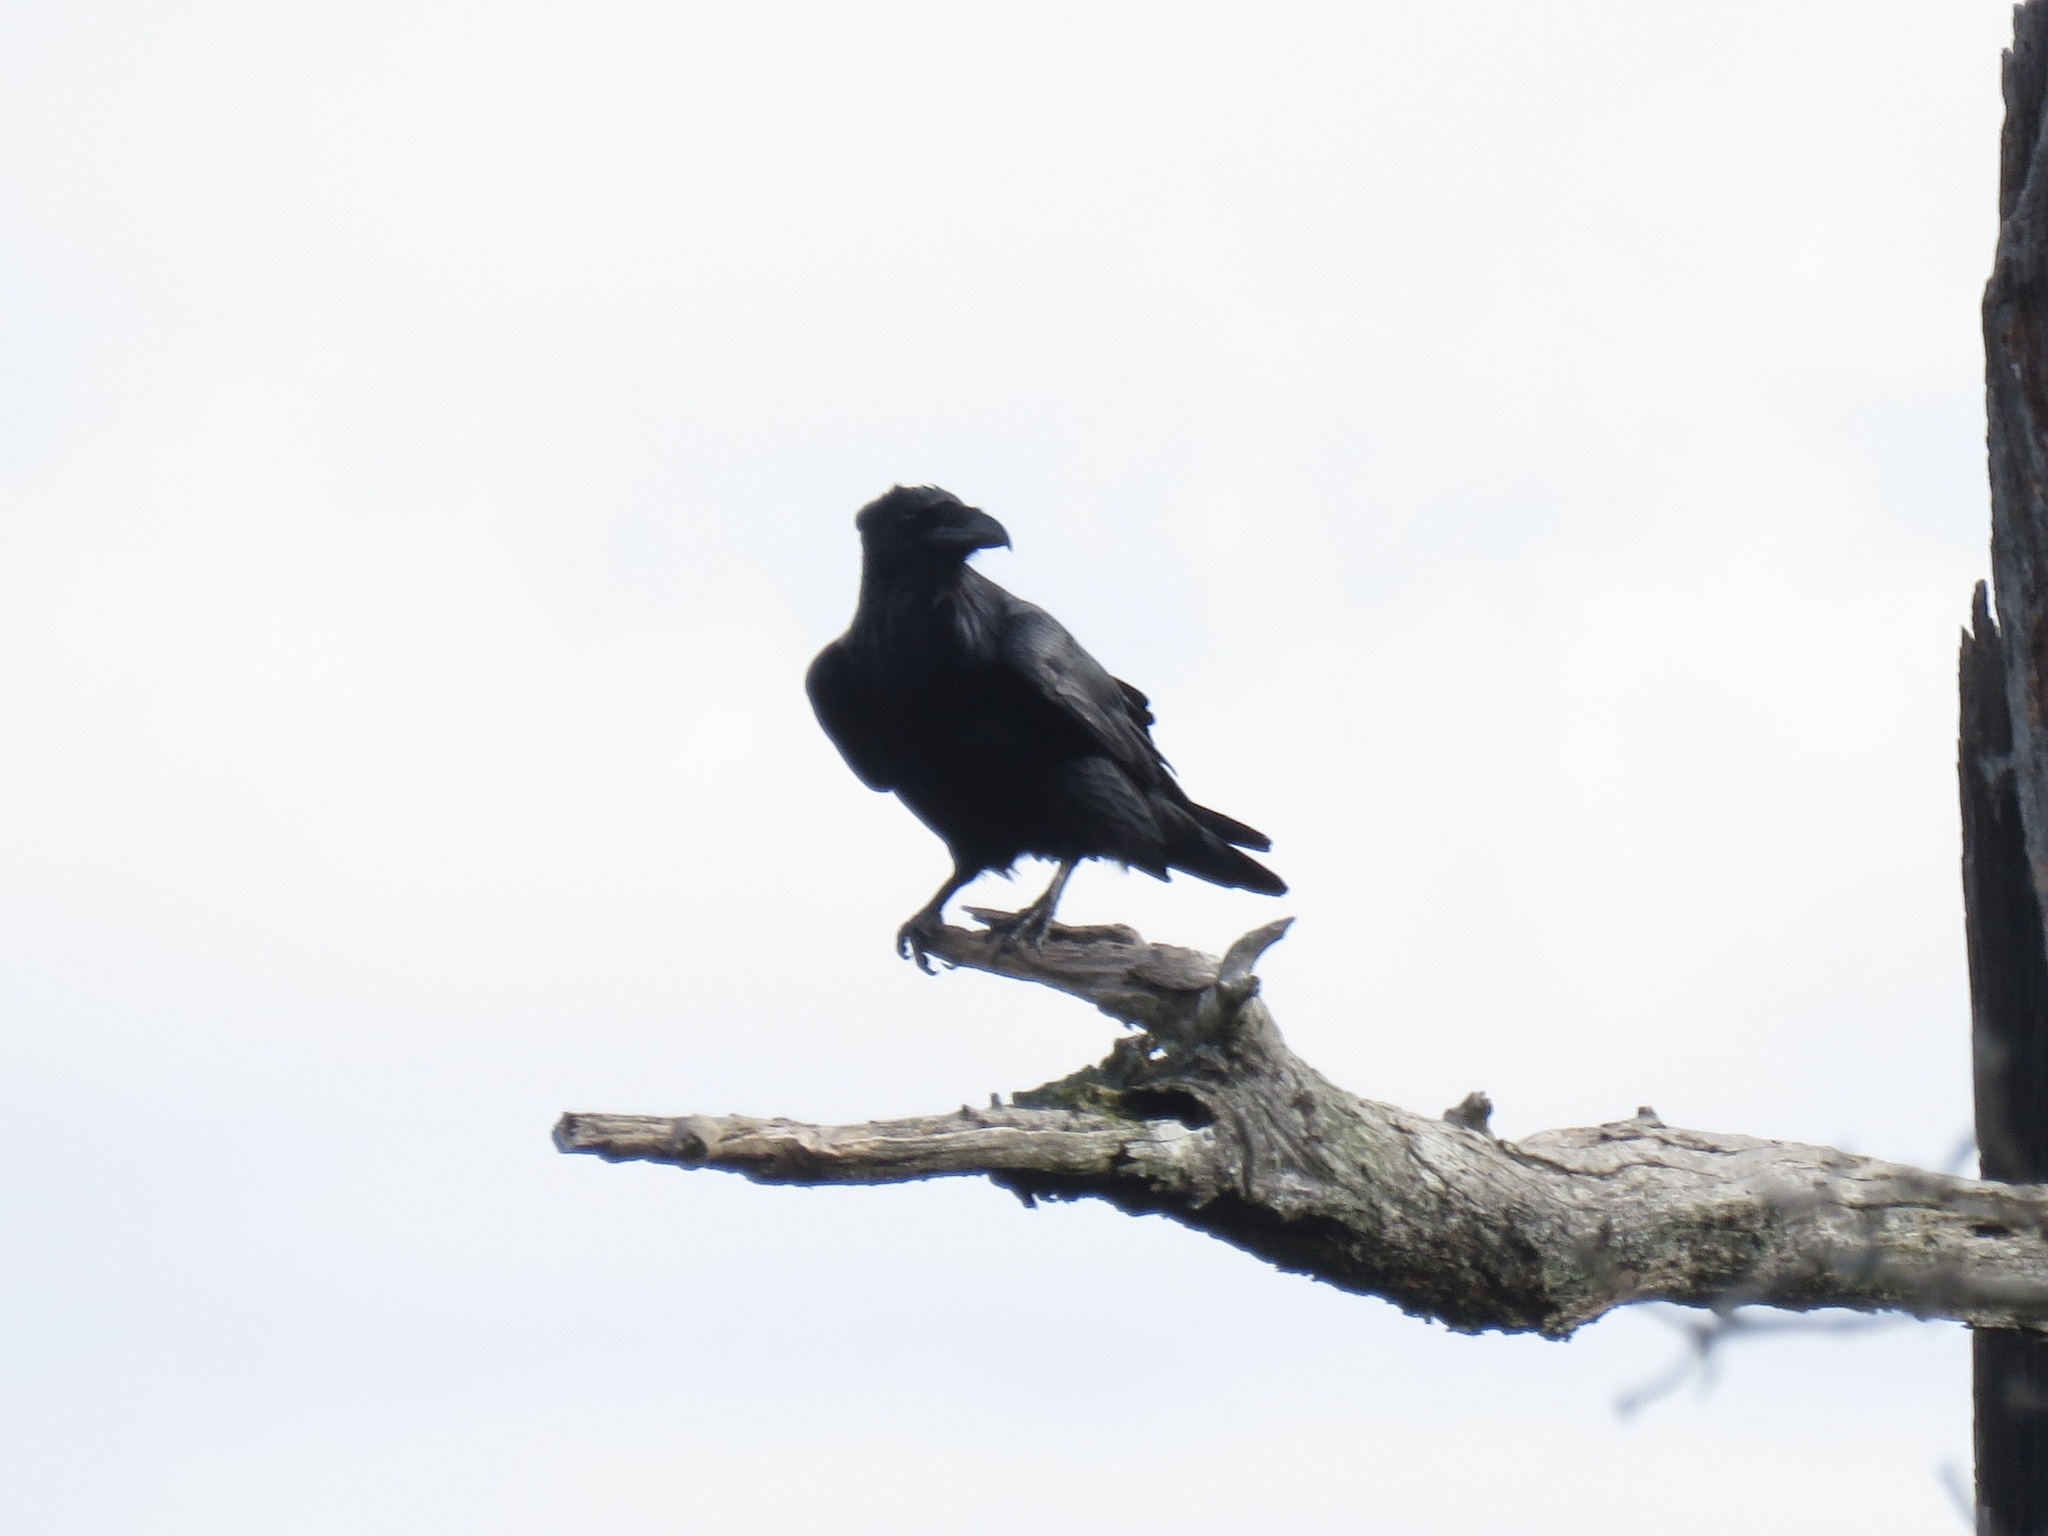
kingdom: Animalia
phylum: Chordata
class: Aves
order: Passeriformes
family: Corvidae
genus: Corvus
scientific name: Corvus corax
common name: Common raven
